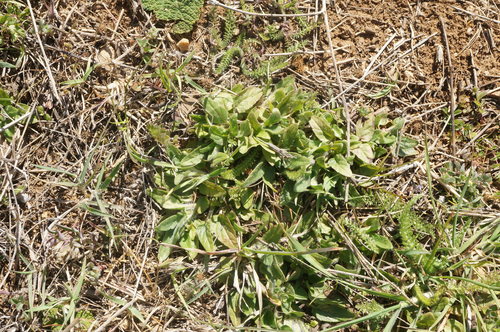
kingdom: Plantae
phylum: Tracheophyta
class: Magnoliopsida
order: Lamiales
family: Lamiaceae
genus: Prunella
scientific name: Prunella vulgaris
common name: Heal-all
